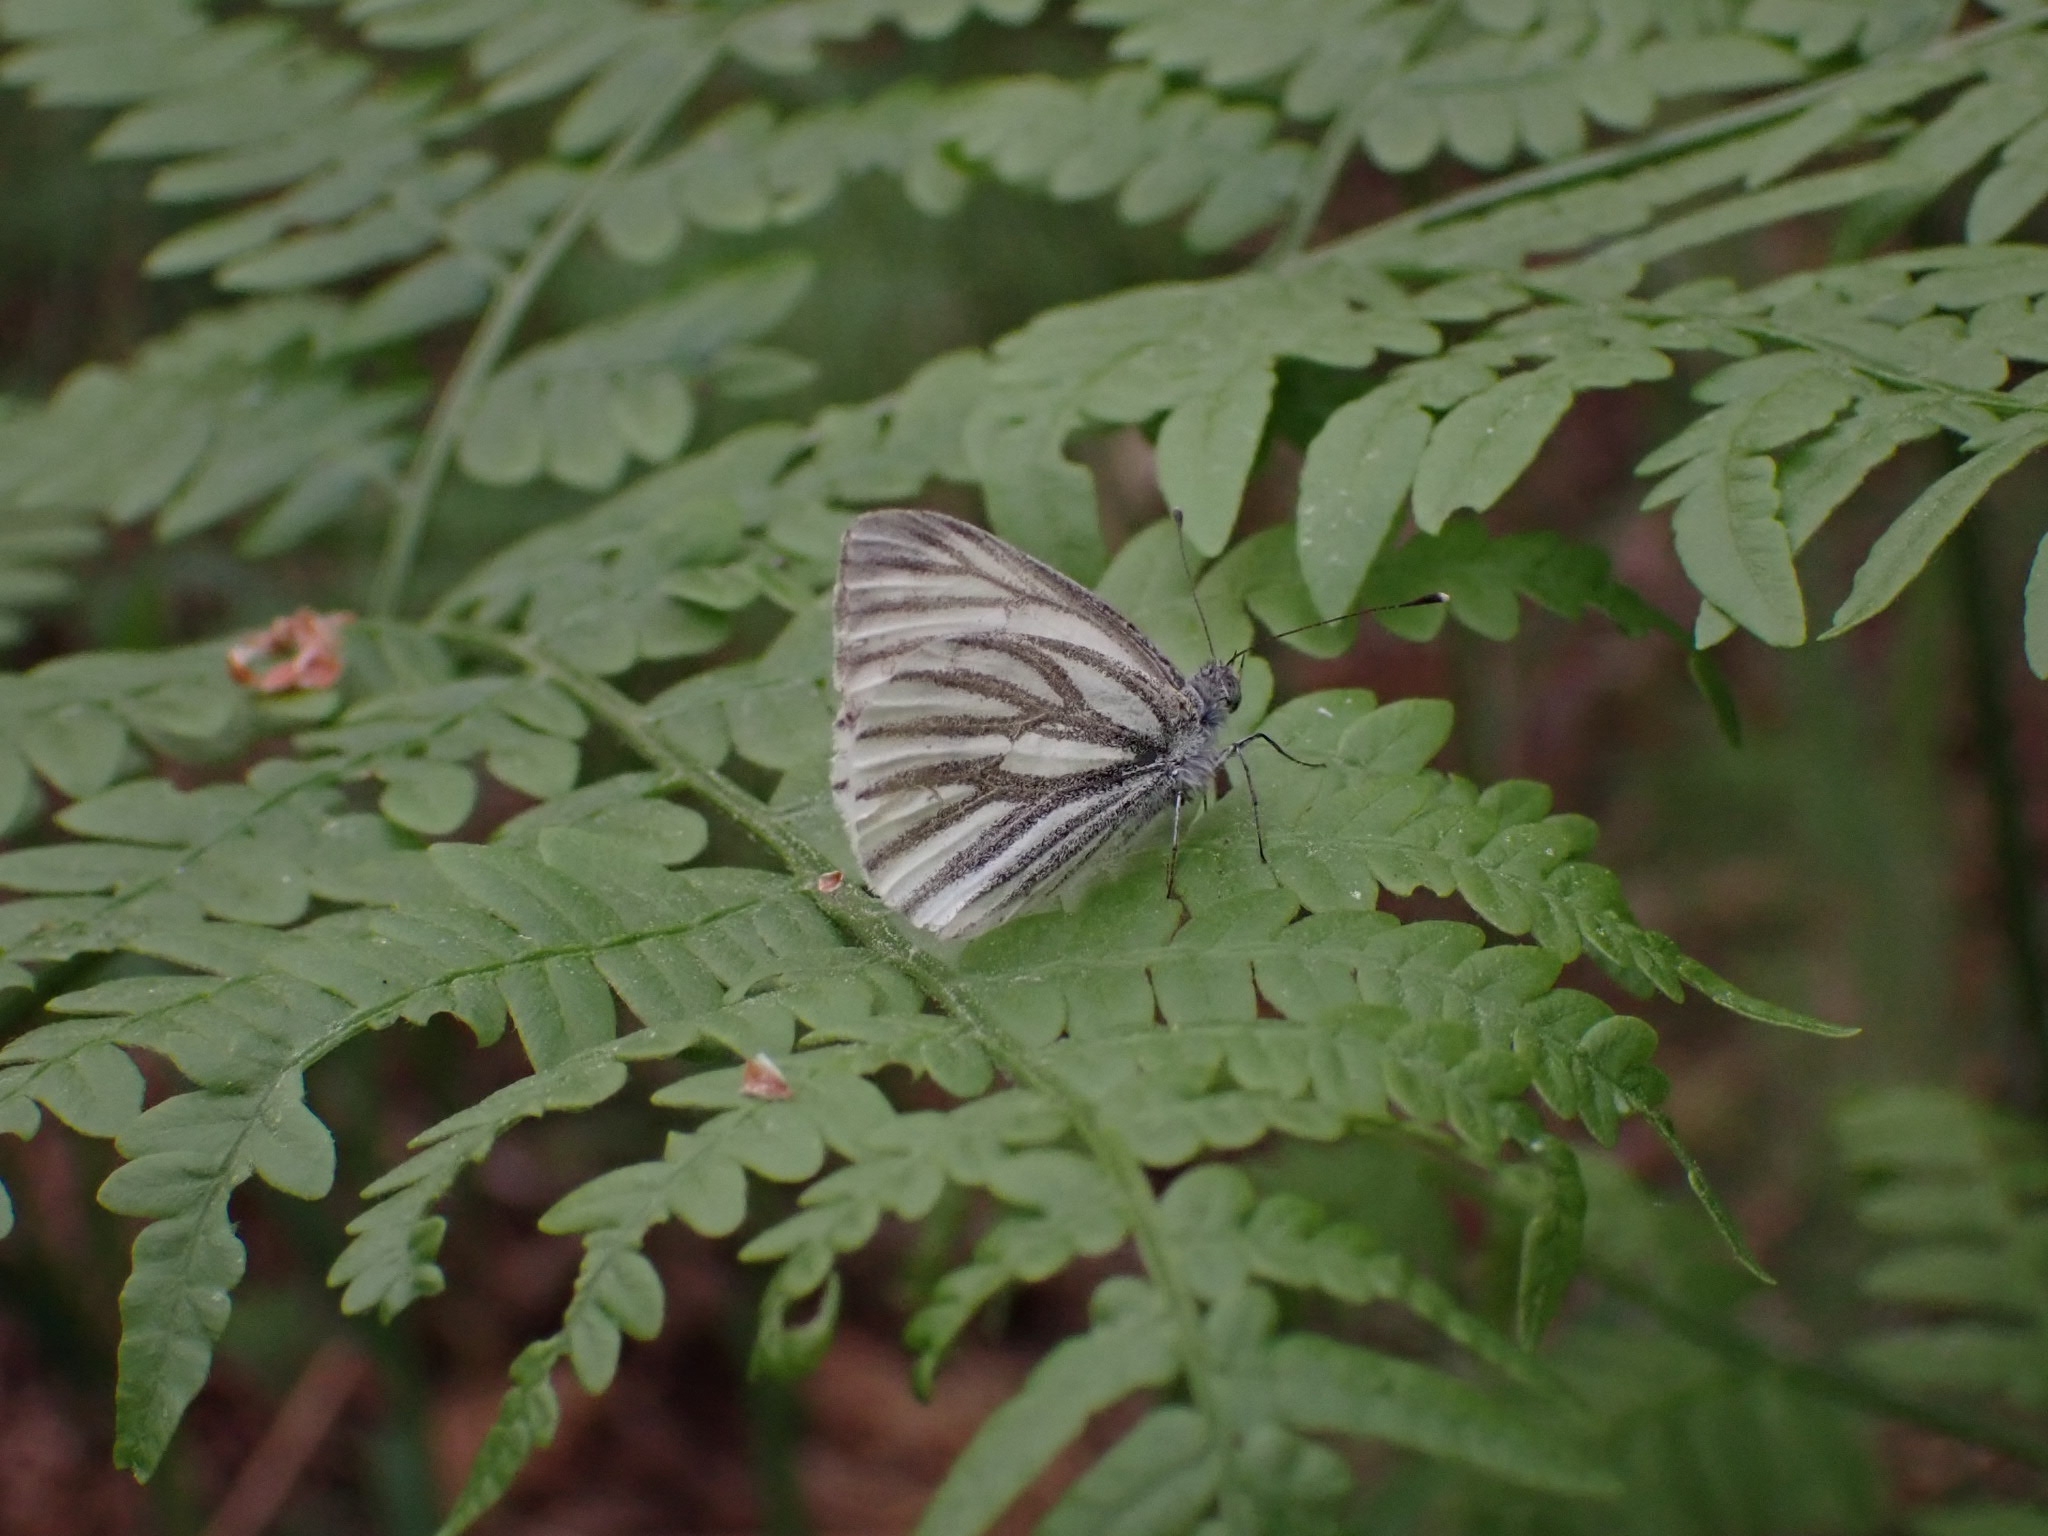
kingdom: Animalia
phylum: Arthropoda
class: Insecta
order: Lepidoptera
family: Pieridae
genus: Pieris
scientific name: Pieris napi
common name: Green-veined white
